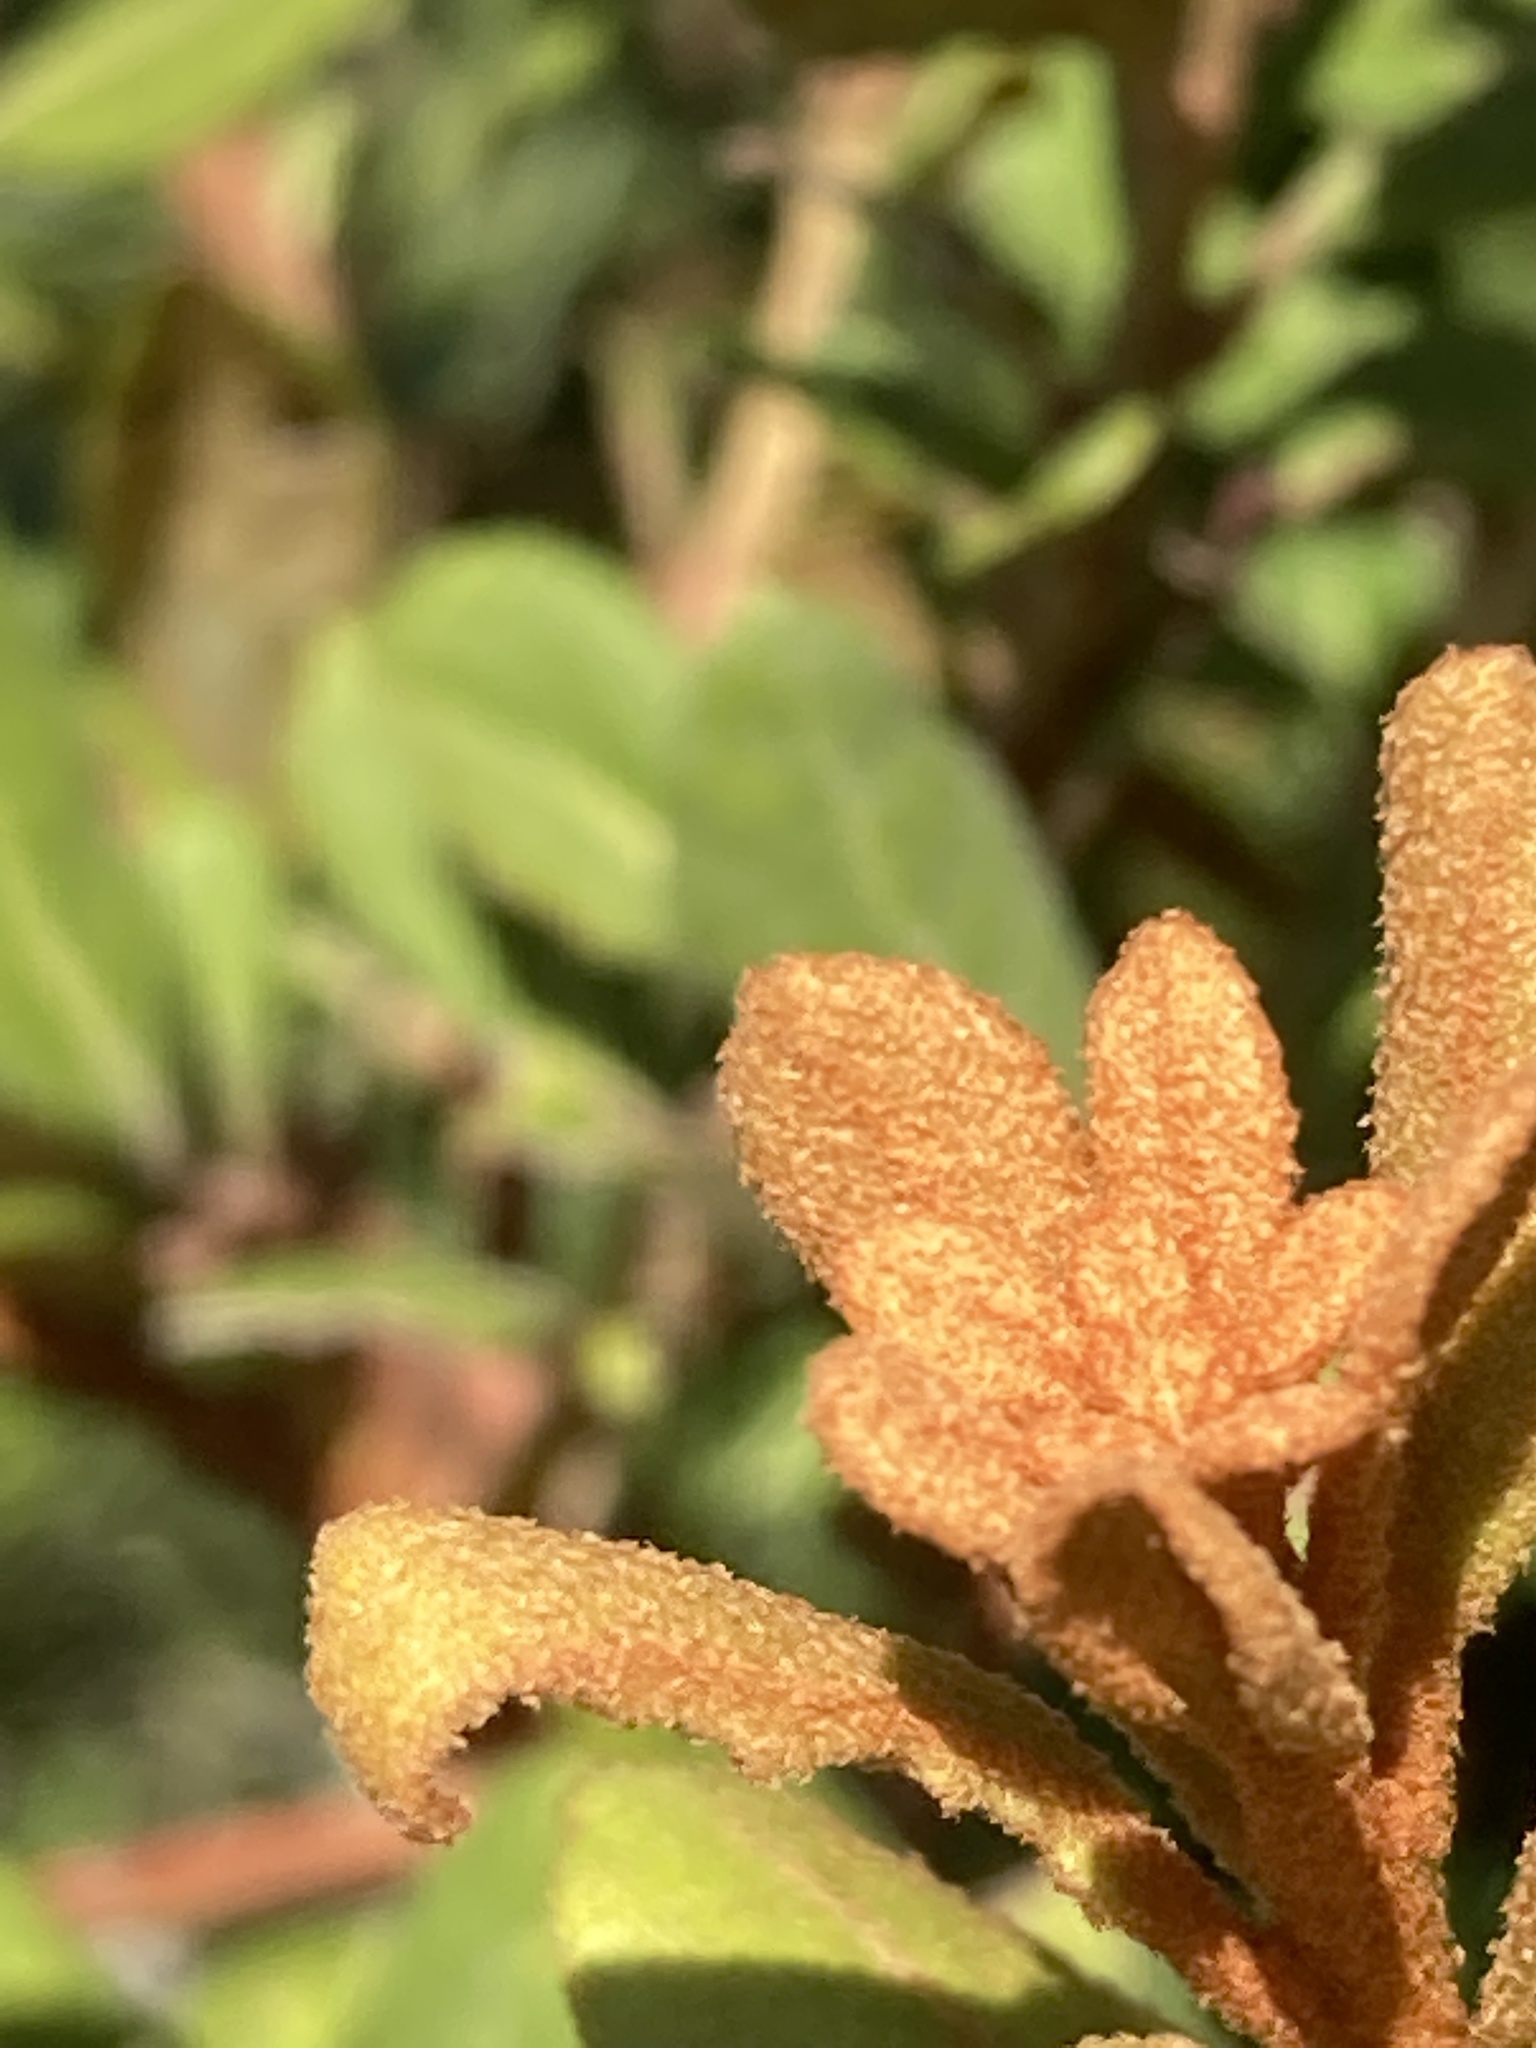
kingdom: Plantae
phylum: Tracheophyta
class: Magnoliopsida
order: Ericales
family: Ericaceae
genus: Lyonia
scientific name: Lyonia ferruginea
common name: Rusty lyonia
